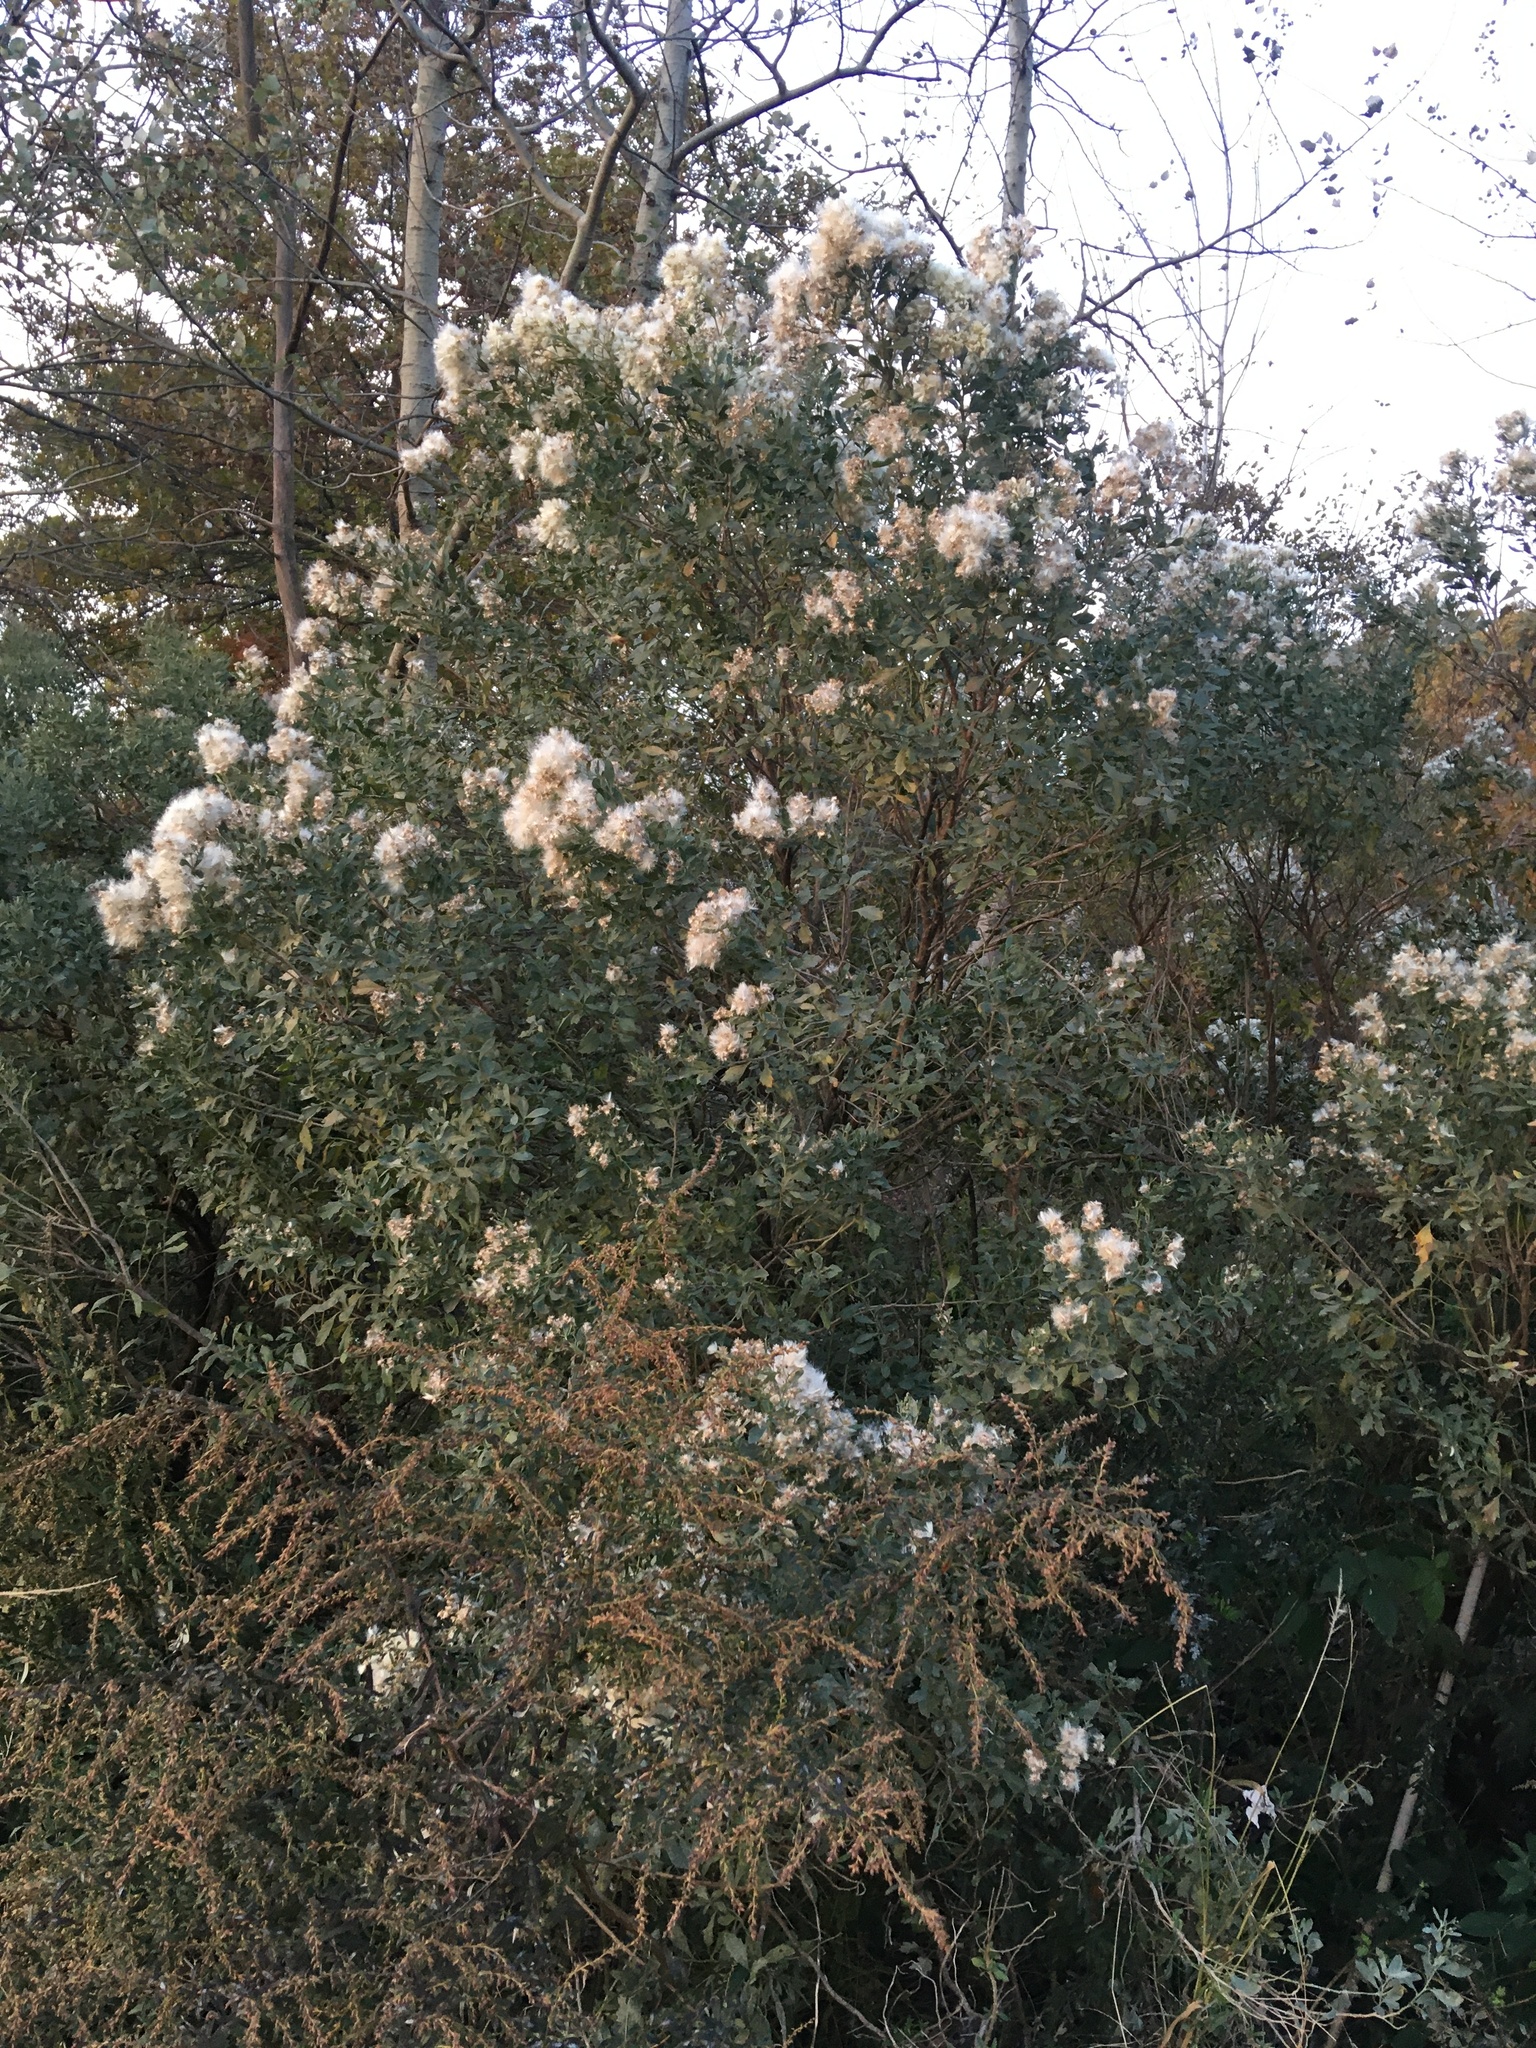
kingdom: Plantae
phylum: Tracheophyta
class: Magnoliopsida
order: Asterales
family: Asteraceae
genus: Baccharis
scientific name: Baccharis halimifolia
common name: Eastern baccharis
